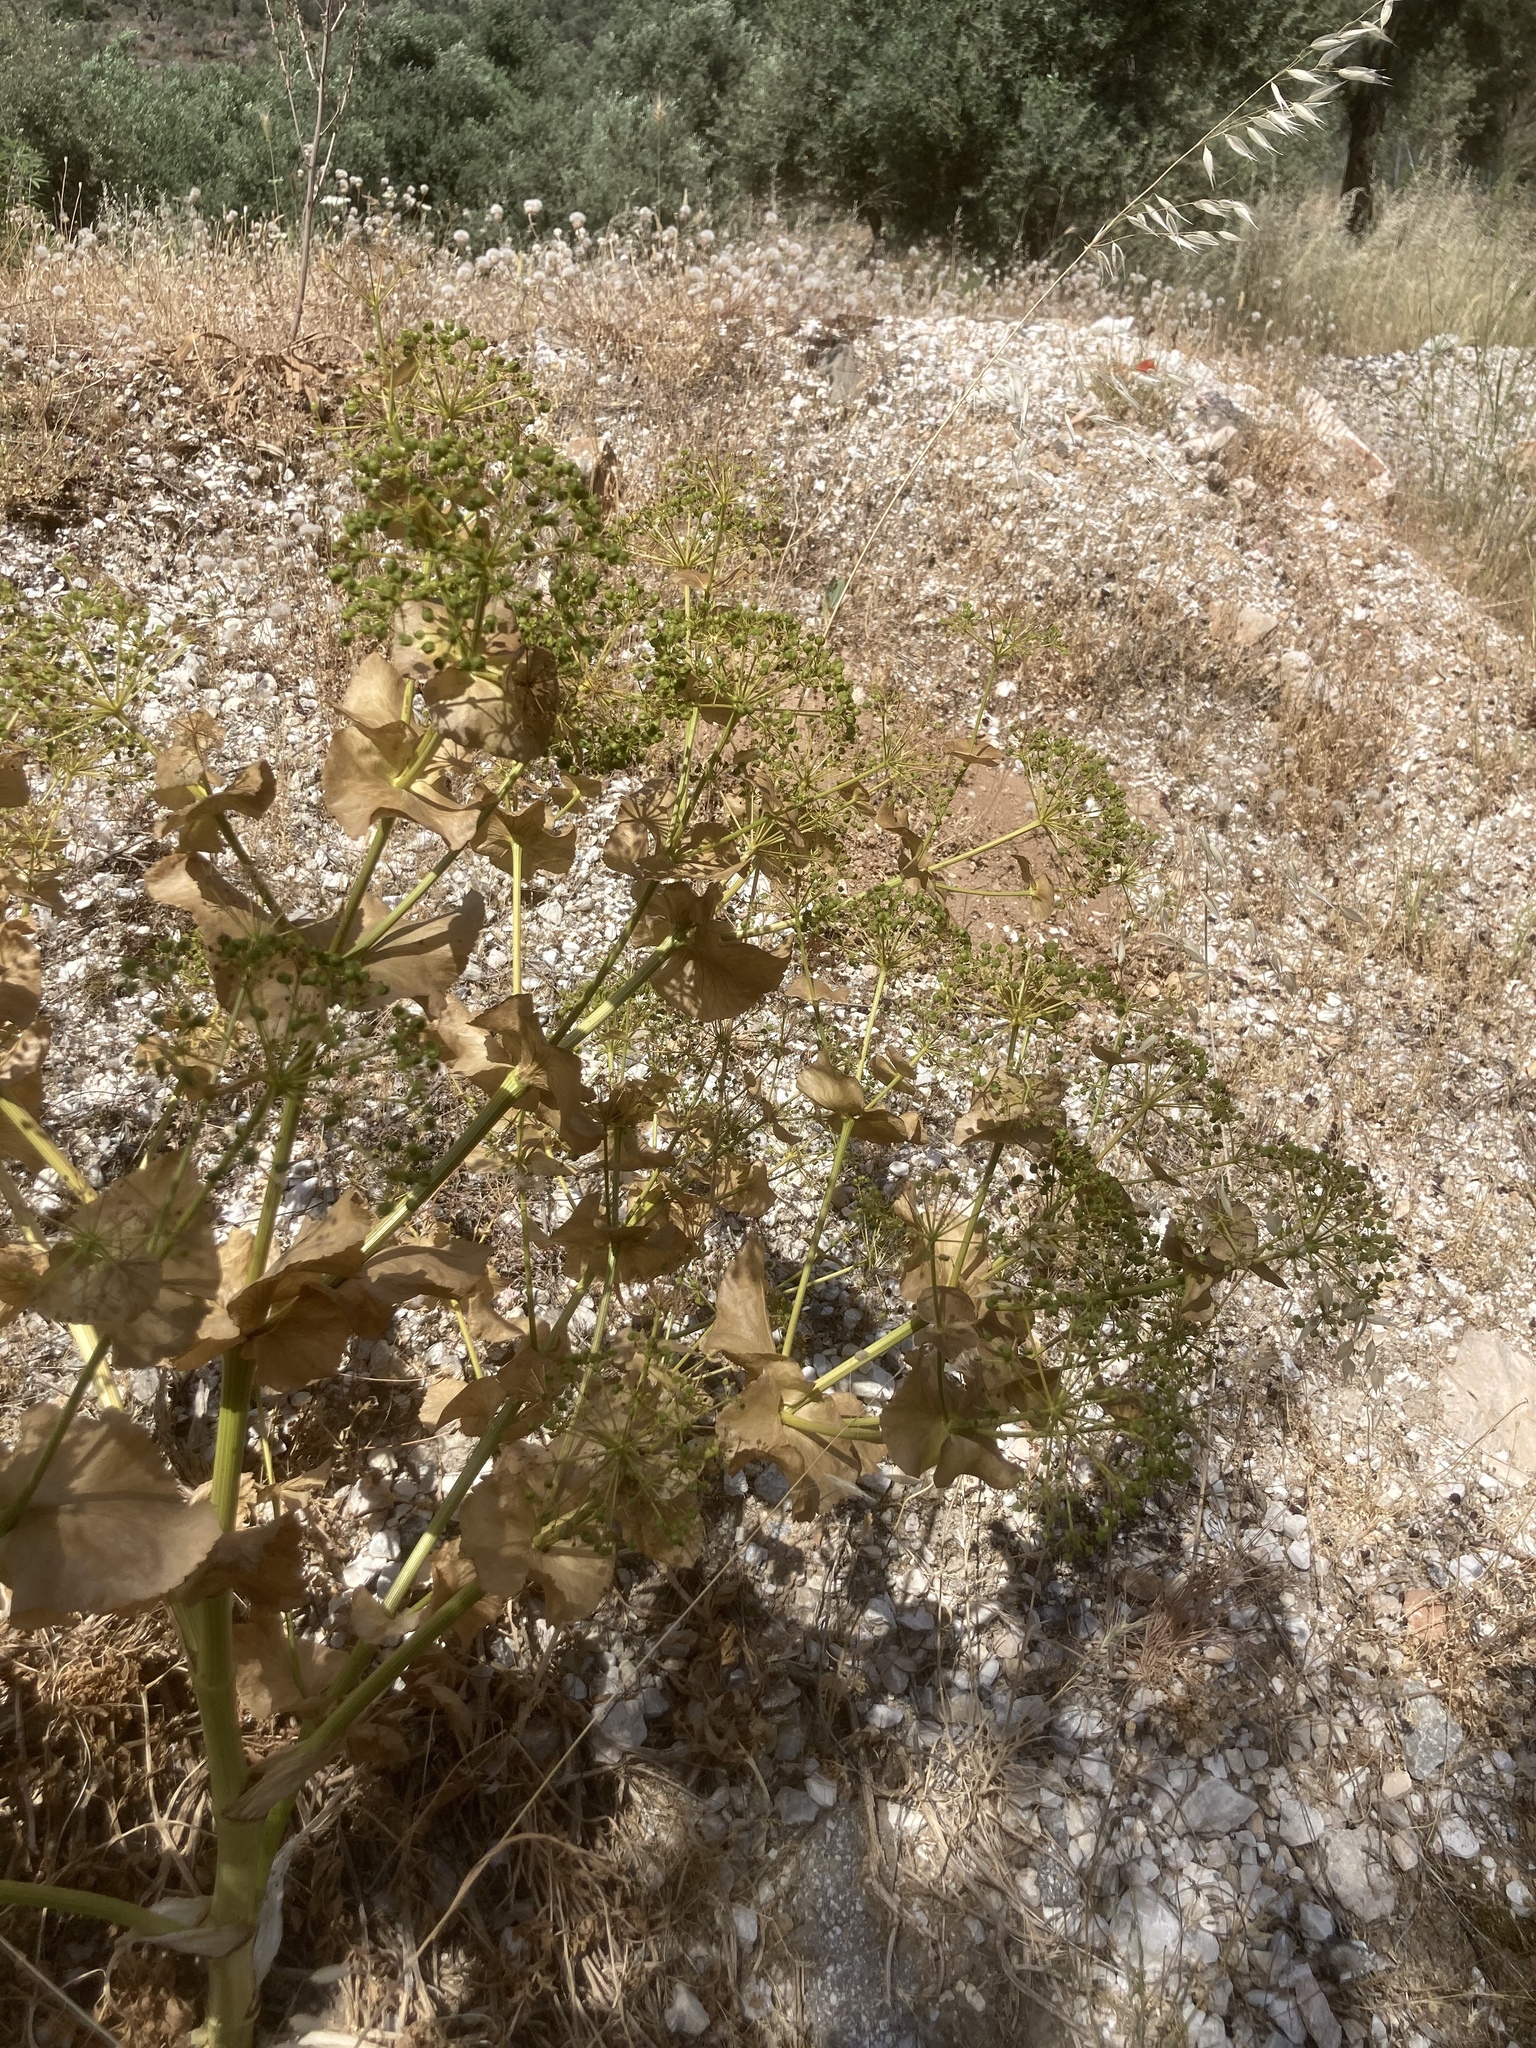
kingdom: Plantae
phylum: Tracheophyta
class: Magnoliopsida
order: Apiales
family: Apiaceae
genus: Smyrnium
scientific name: Smyrnium perfoliatum
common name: Perfoliate alexanders
